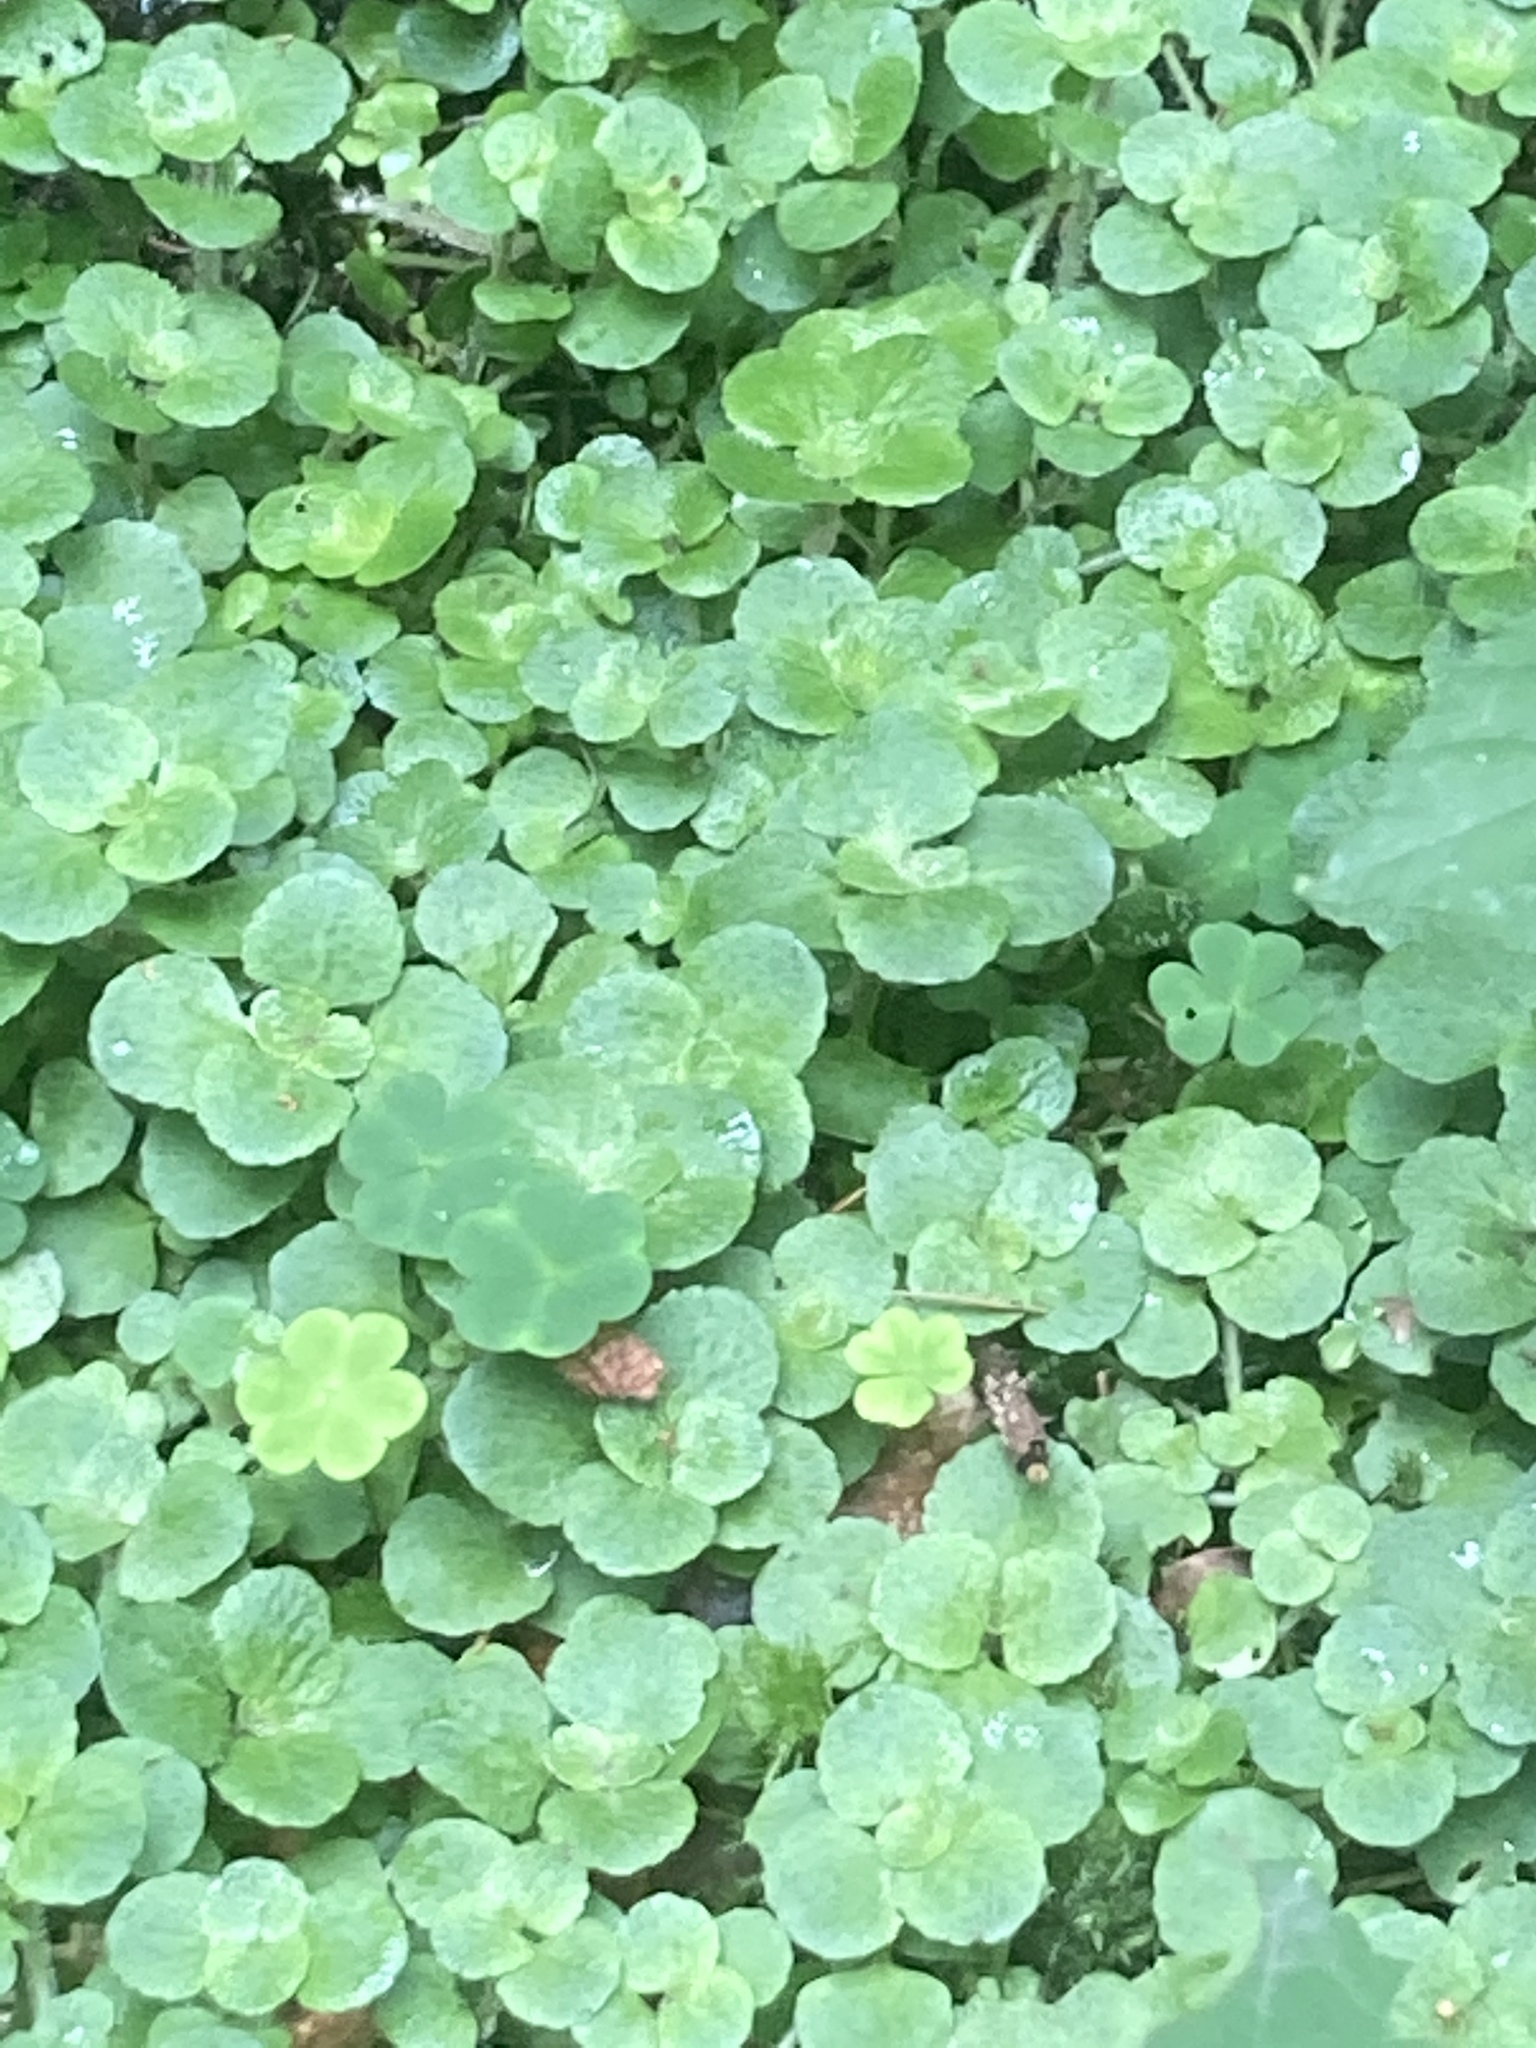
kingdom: Plantae
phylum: Tracheophyta
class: Magnoliopsida
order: Saxifragales
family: Saxifragaceae
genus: Chrysosplenium
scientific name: Chrysosplenium oppositifolium
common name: Opposite-leaved golden-saxifrage
